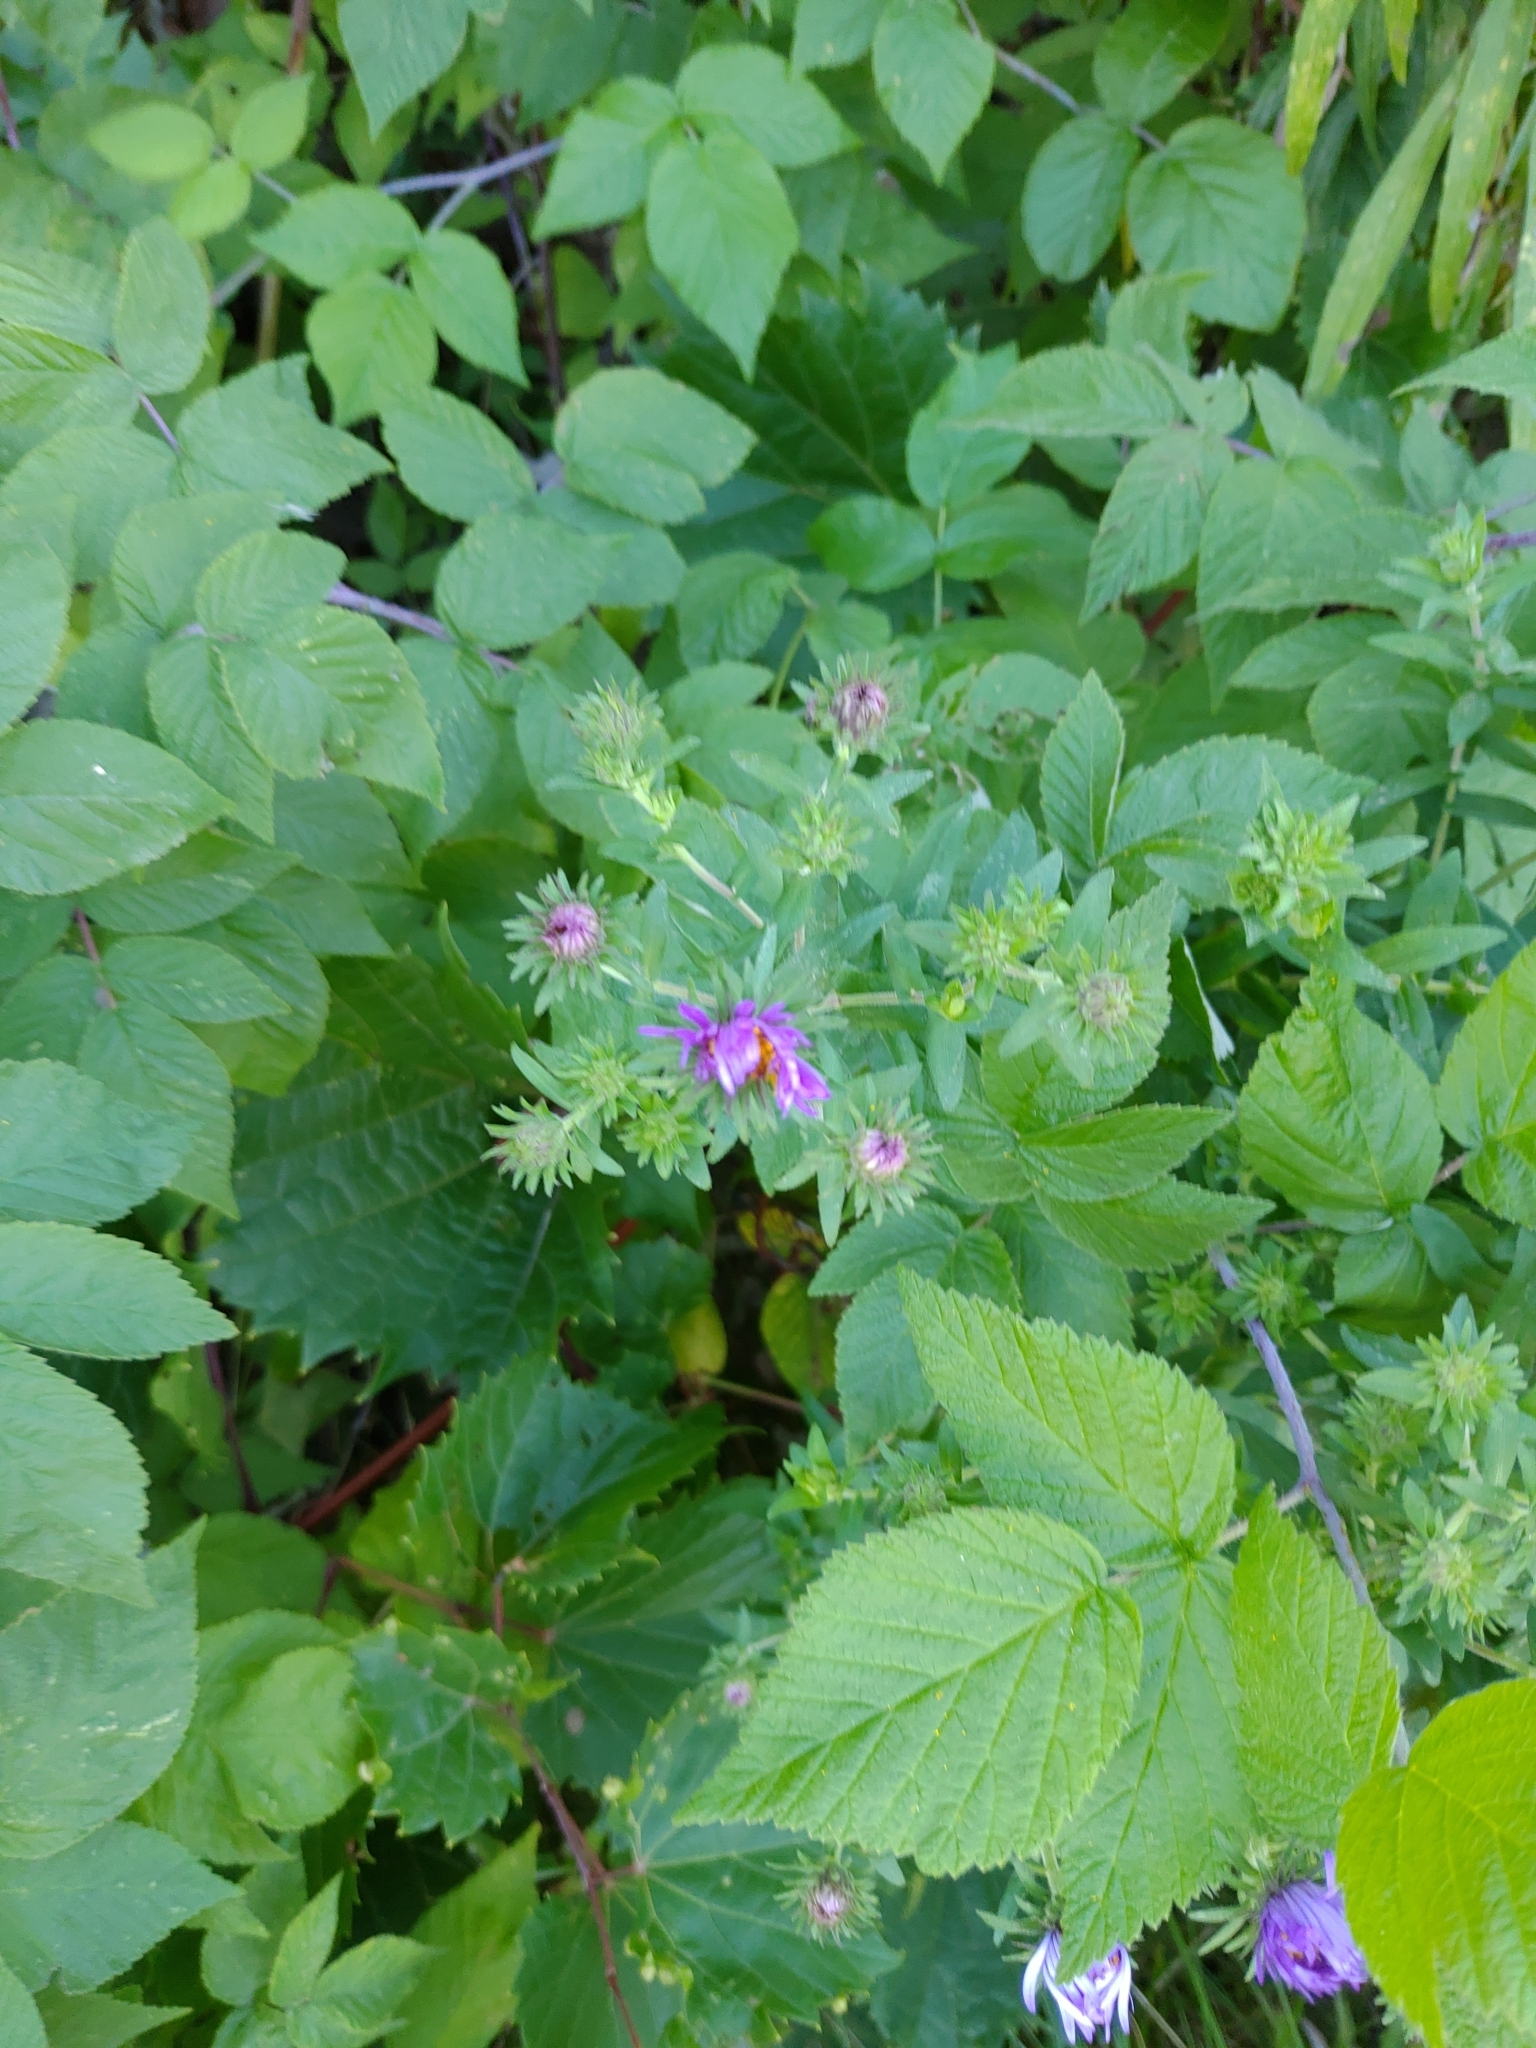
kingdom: Plantae
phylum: Tracheophyta
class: Magnoliopsida
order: Asterales
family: Asteraceae
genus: Symphyotrichum
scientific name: Symphyotrichum novae-angliae
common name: Michaelmas daisy
